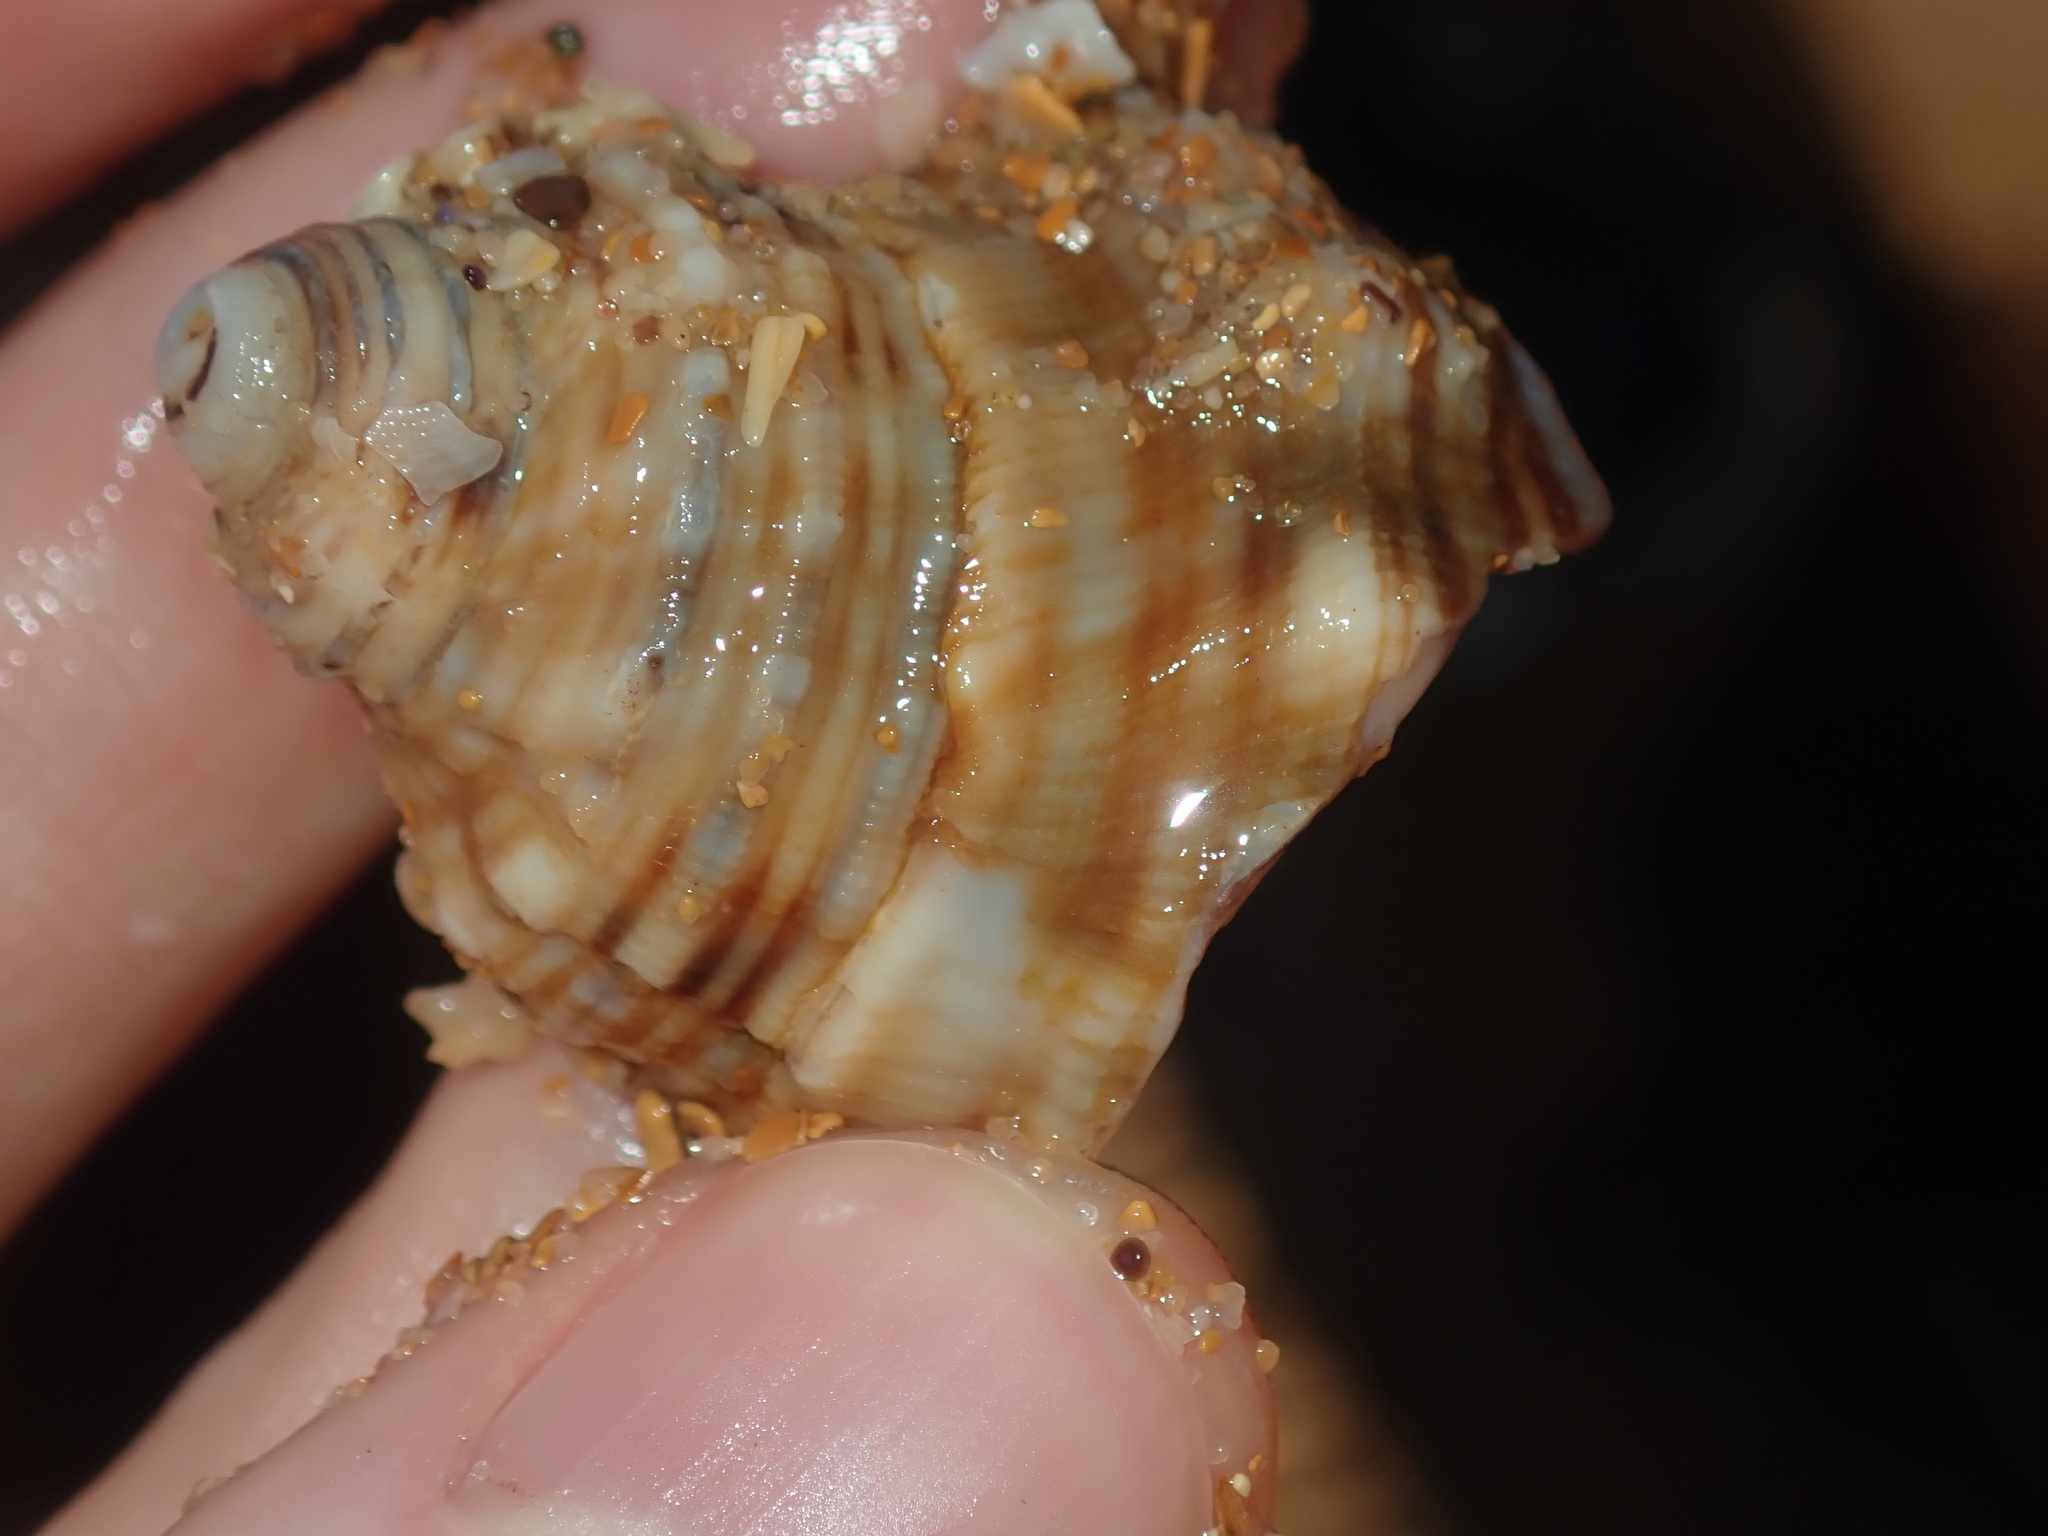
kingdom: Animalia
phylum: Mollusca
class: Gastropoda
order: Littorinimorpha
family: Cymatiidae
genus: Cabestana
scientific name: Cabestana spengleri
